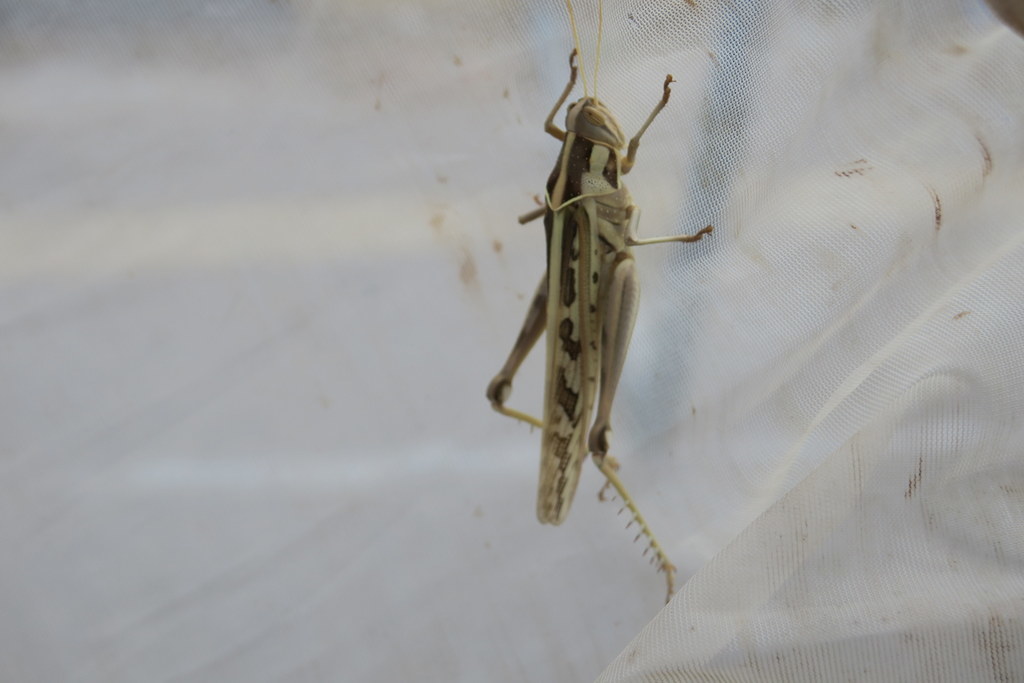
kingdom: Animalia
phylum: Arthropoda
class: Insecta
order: Orthoptera
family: Acrididae
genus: Cyrtacanthacris
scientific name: Cyrtacanthacris tatarica
